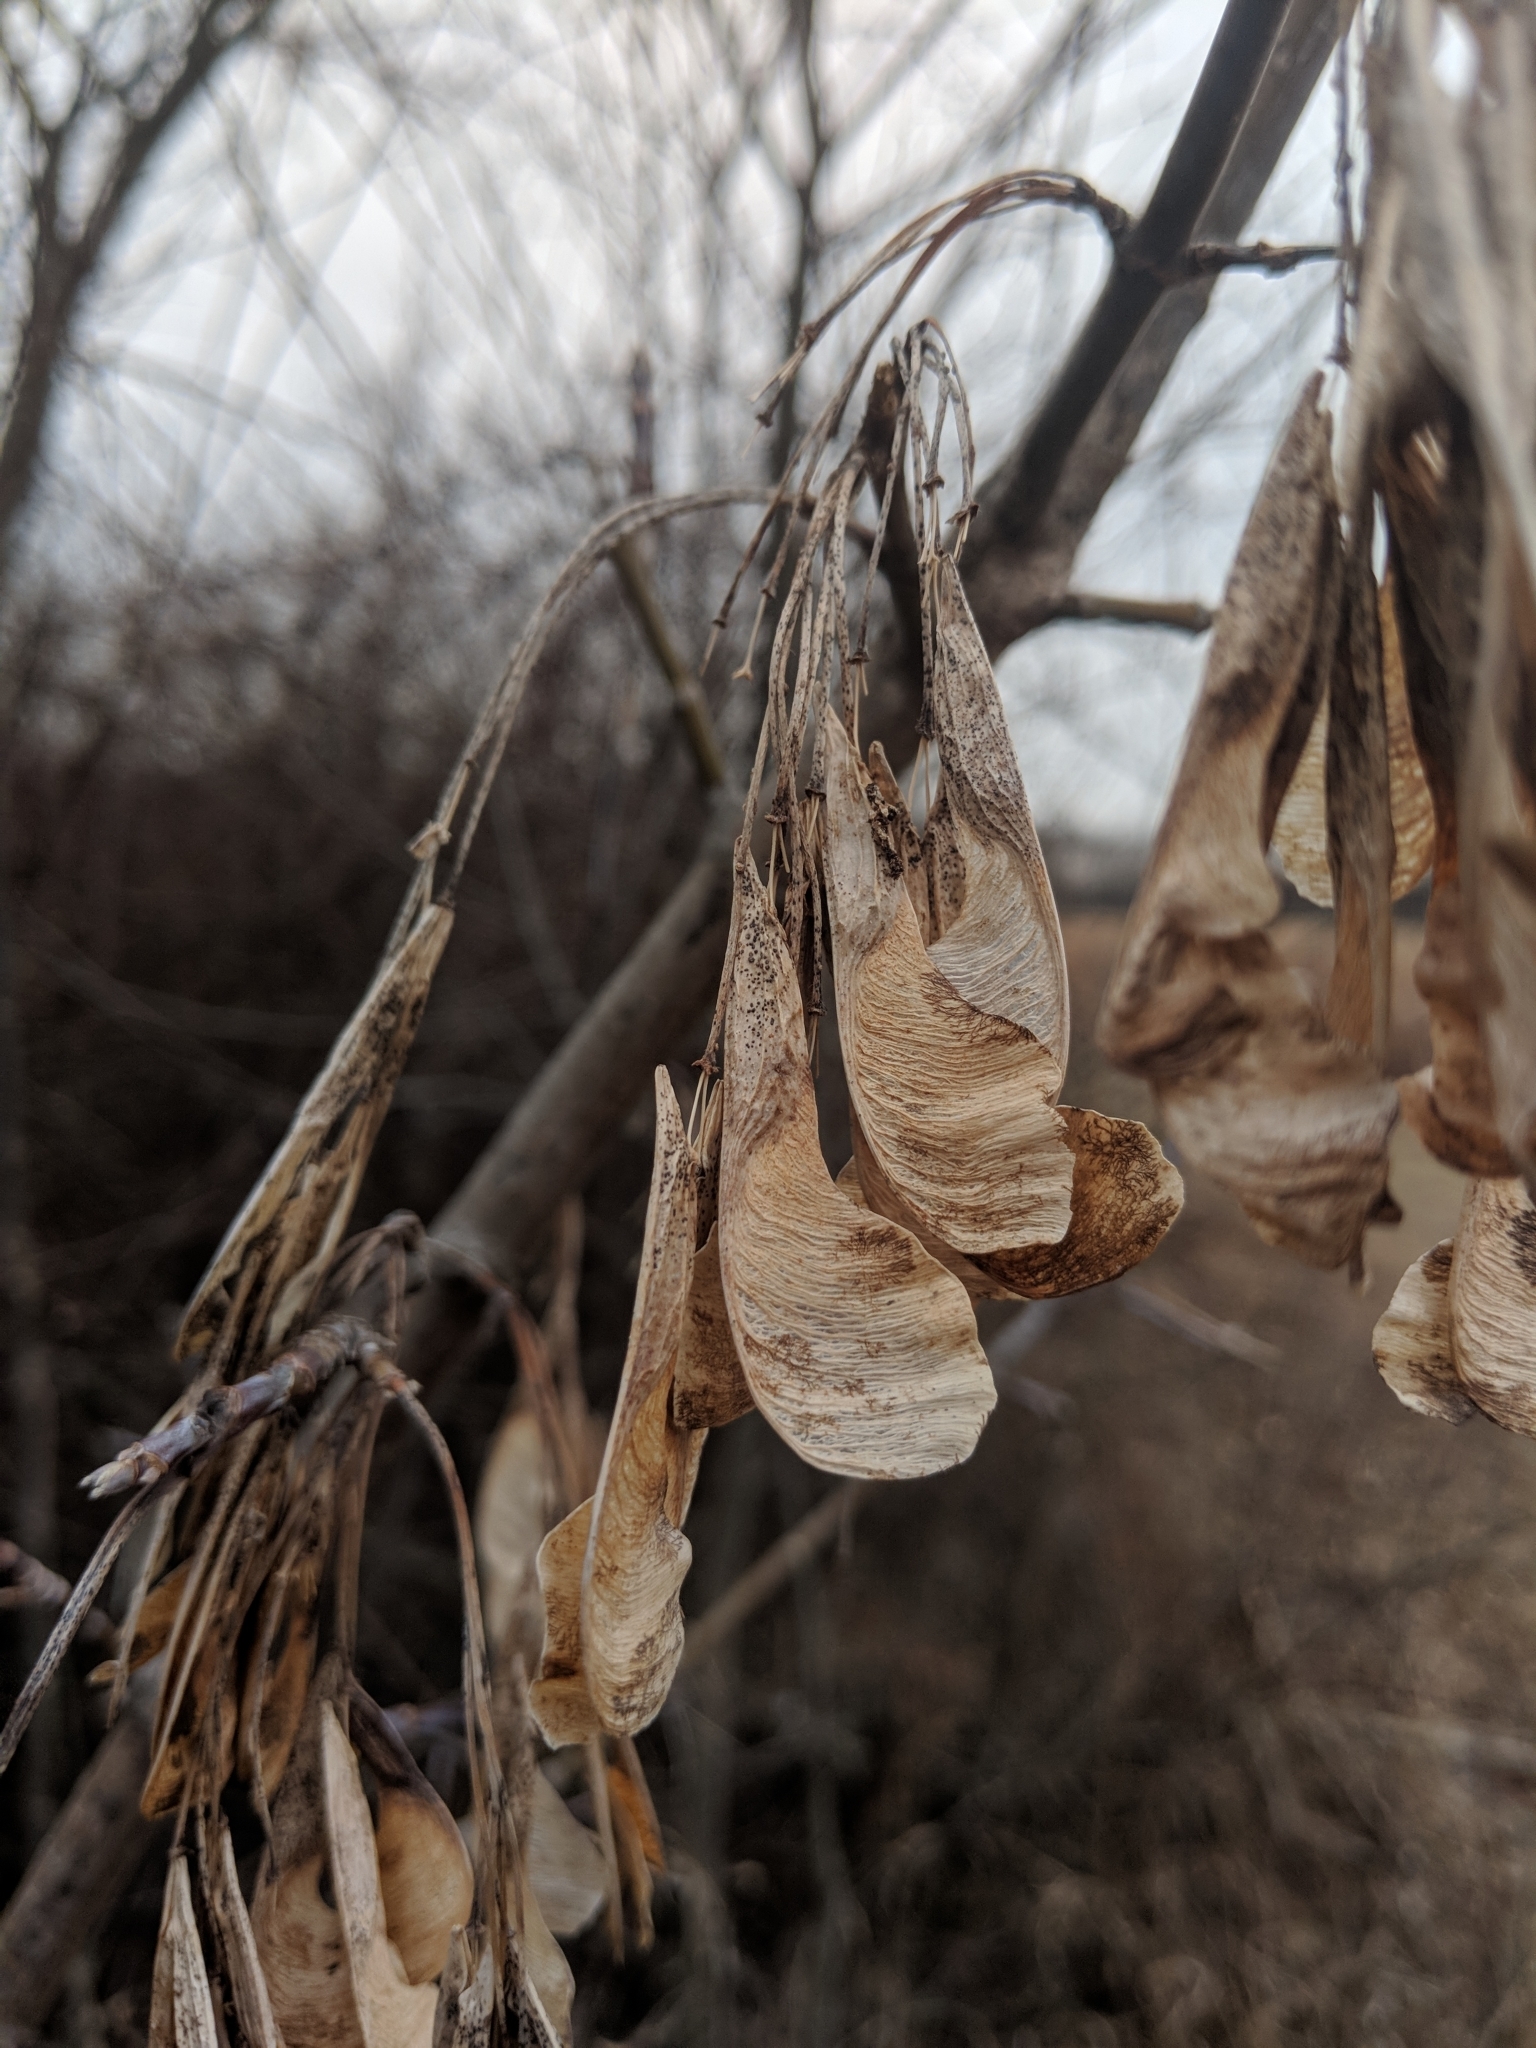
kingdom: Plantae
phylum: Tracheophyta
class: Magnoliopsida
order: Sapindales
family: Sapindaceae
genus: Acer
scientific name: Acer negundo
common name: Ashleaf maple
